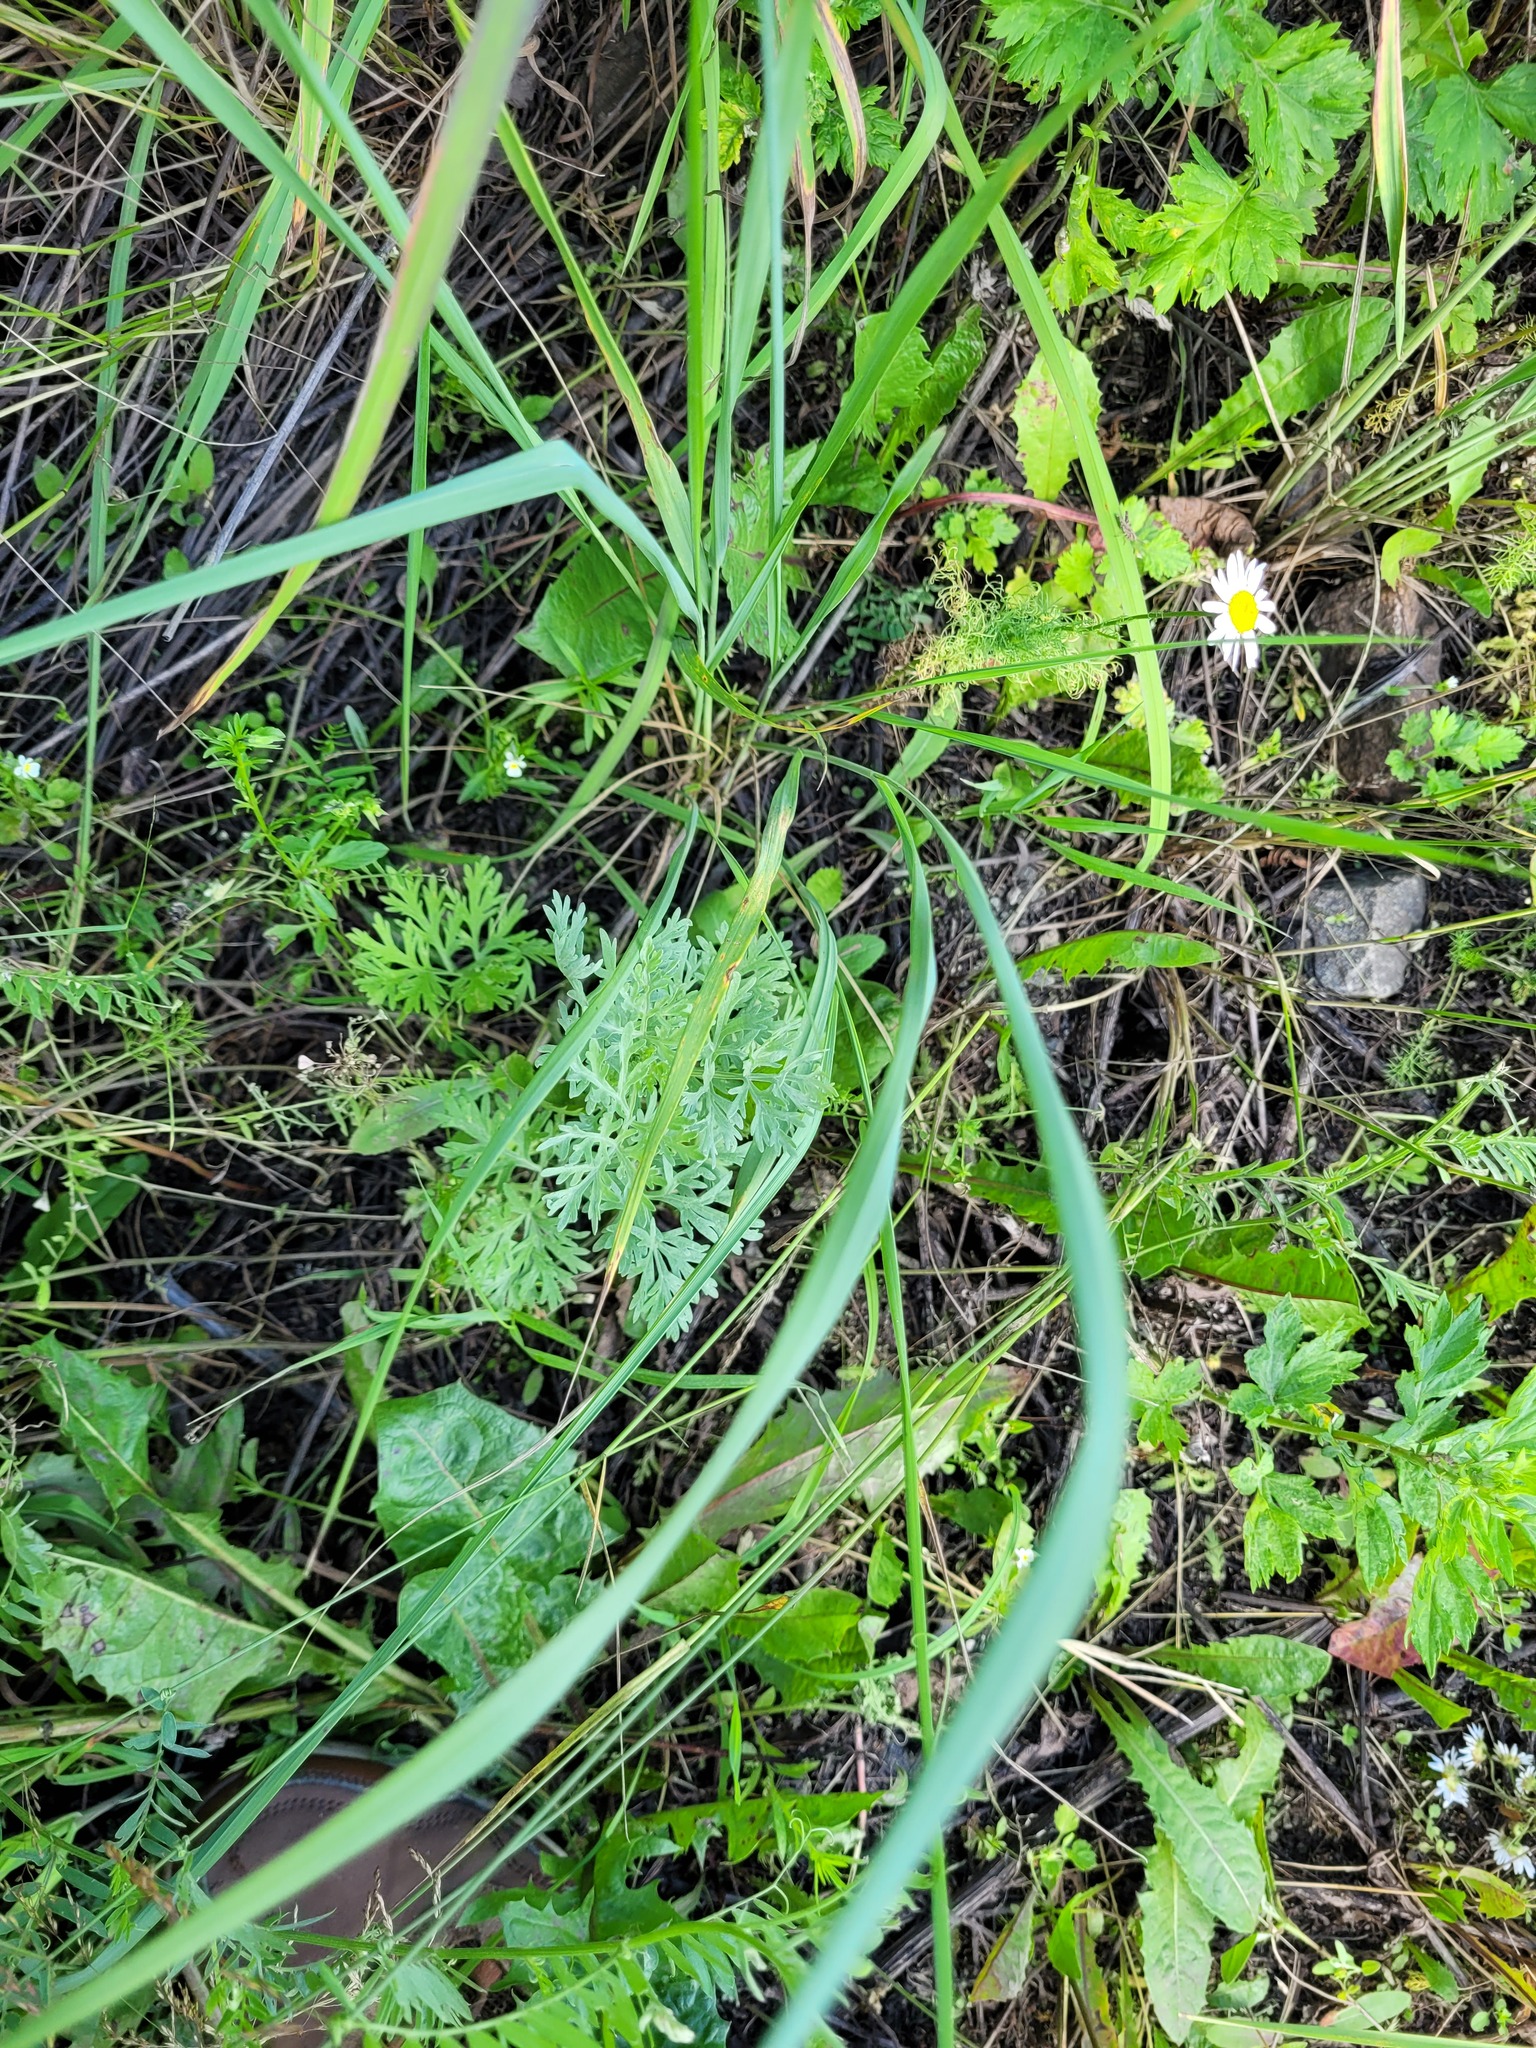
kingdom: Plantae
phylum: Tracheophyta
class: Magnoliopsida
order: Asterales
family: Asteraceae
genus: Artemisia
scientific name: Artemisia absinthium
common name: Wormwood
